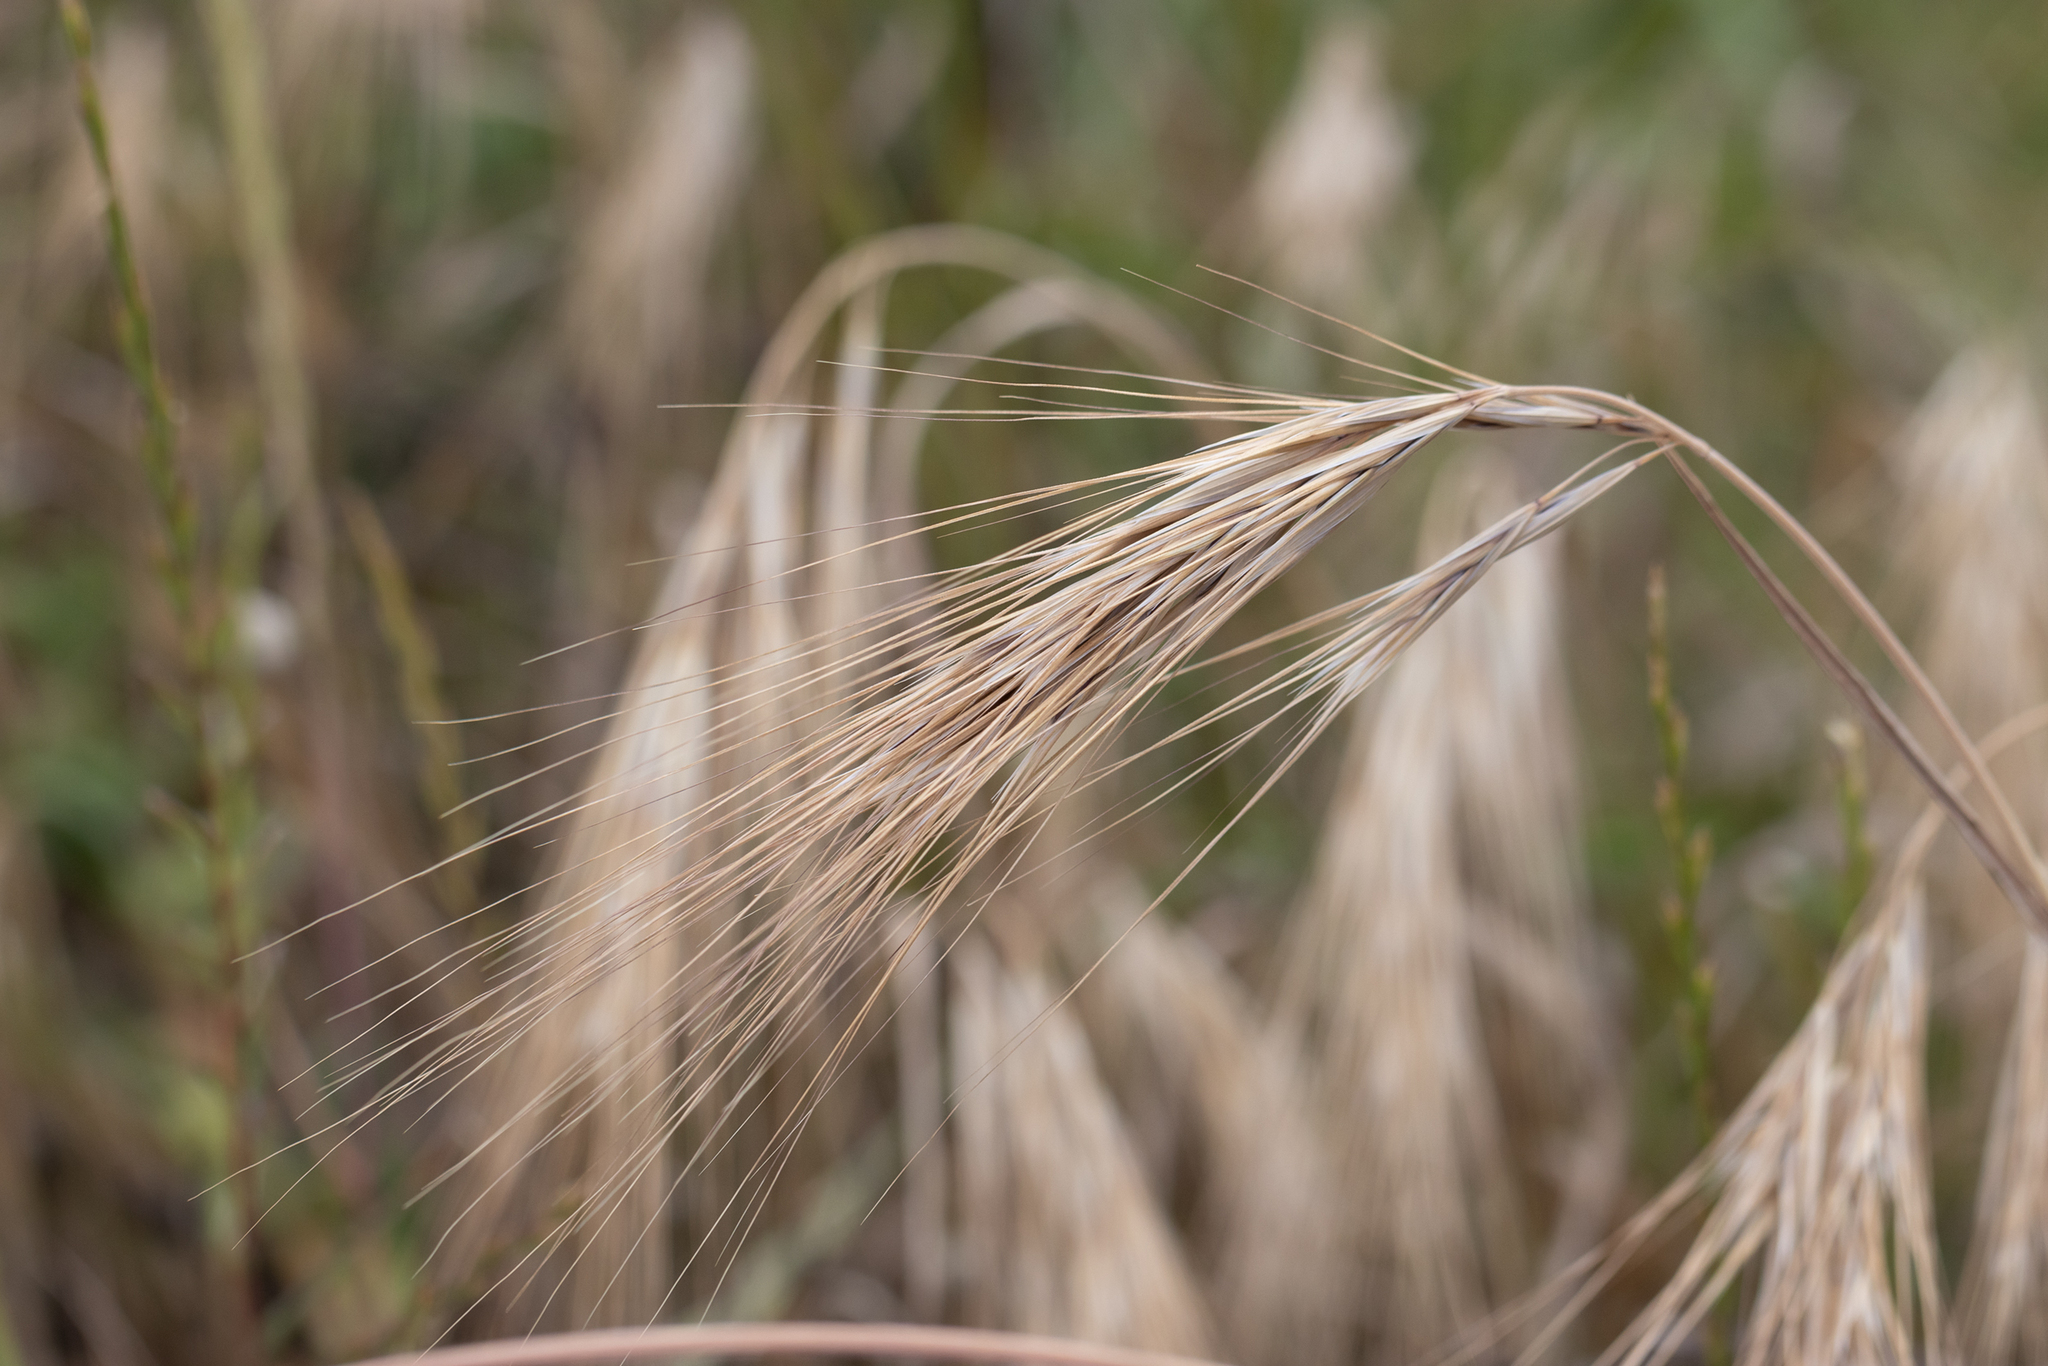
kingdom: Plantae
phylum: Tracheophyta
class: Liliopsida
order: Poales
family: Poaceae
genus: Bromus
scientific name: Bromus diandrus
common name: Ripgut brome
